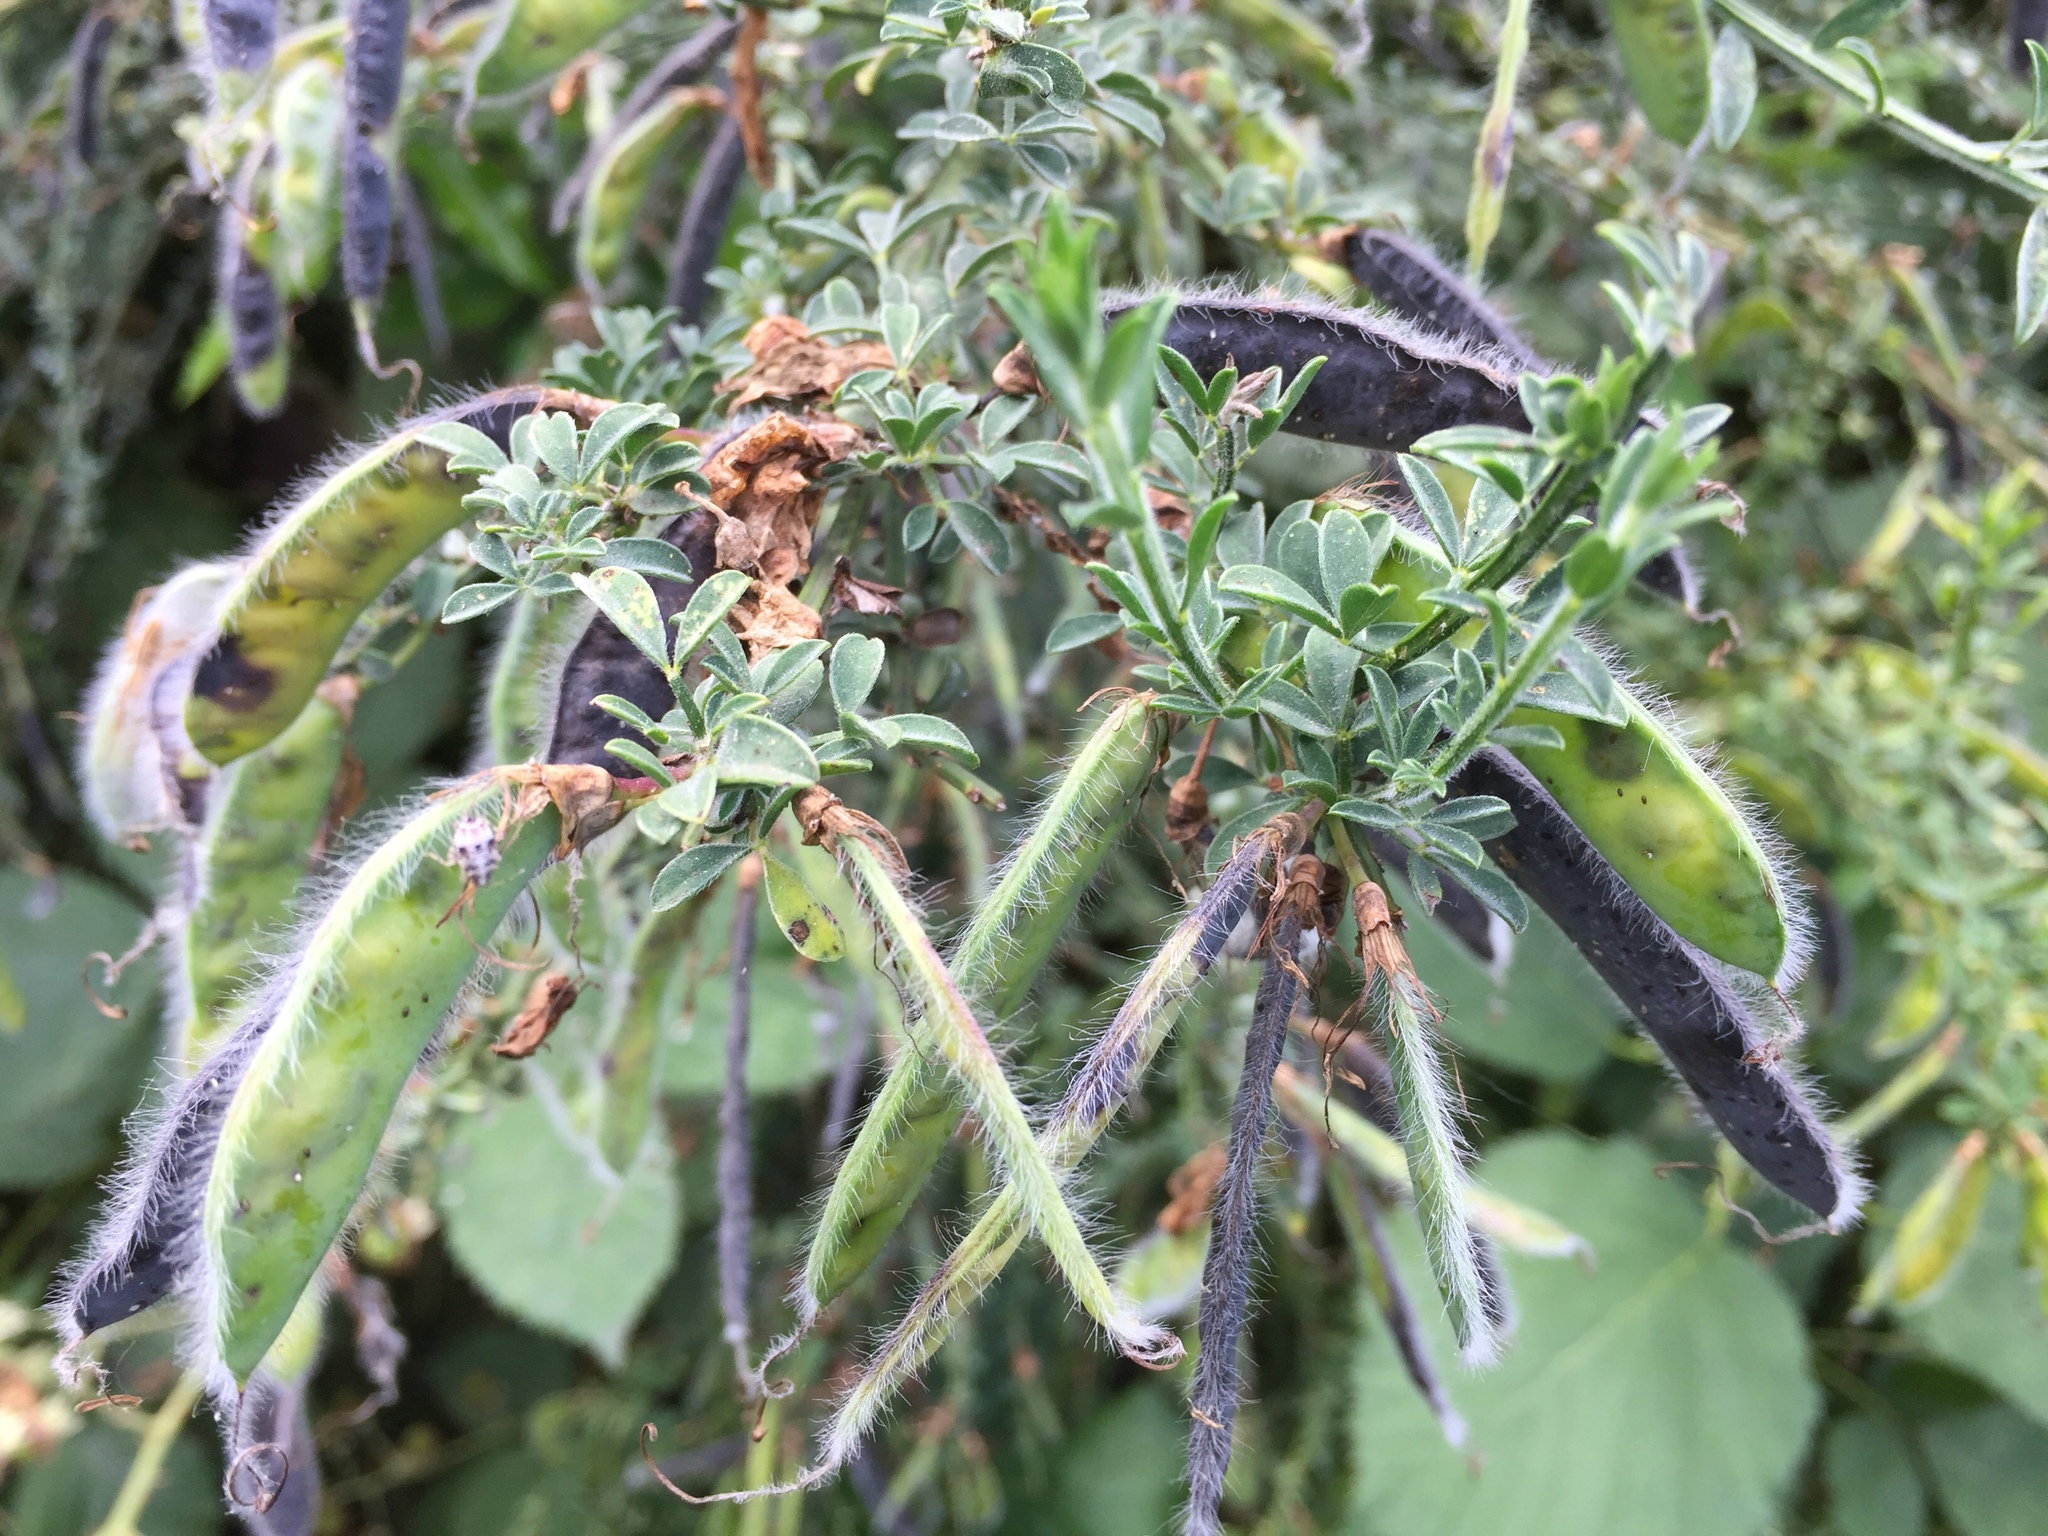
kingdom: Plantae
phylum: Tracheophyta
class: Magnoliopsida
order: Fabales
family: Fabaceae
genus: Cytisus
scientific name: Cytisus scoparius
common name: Scotch broom
